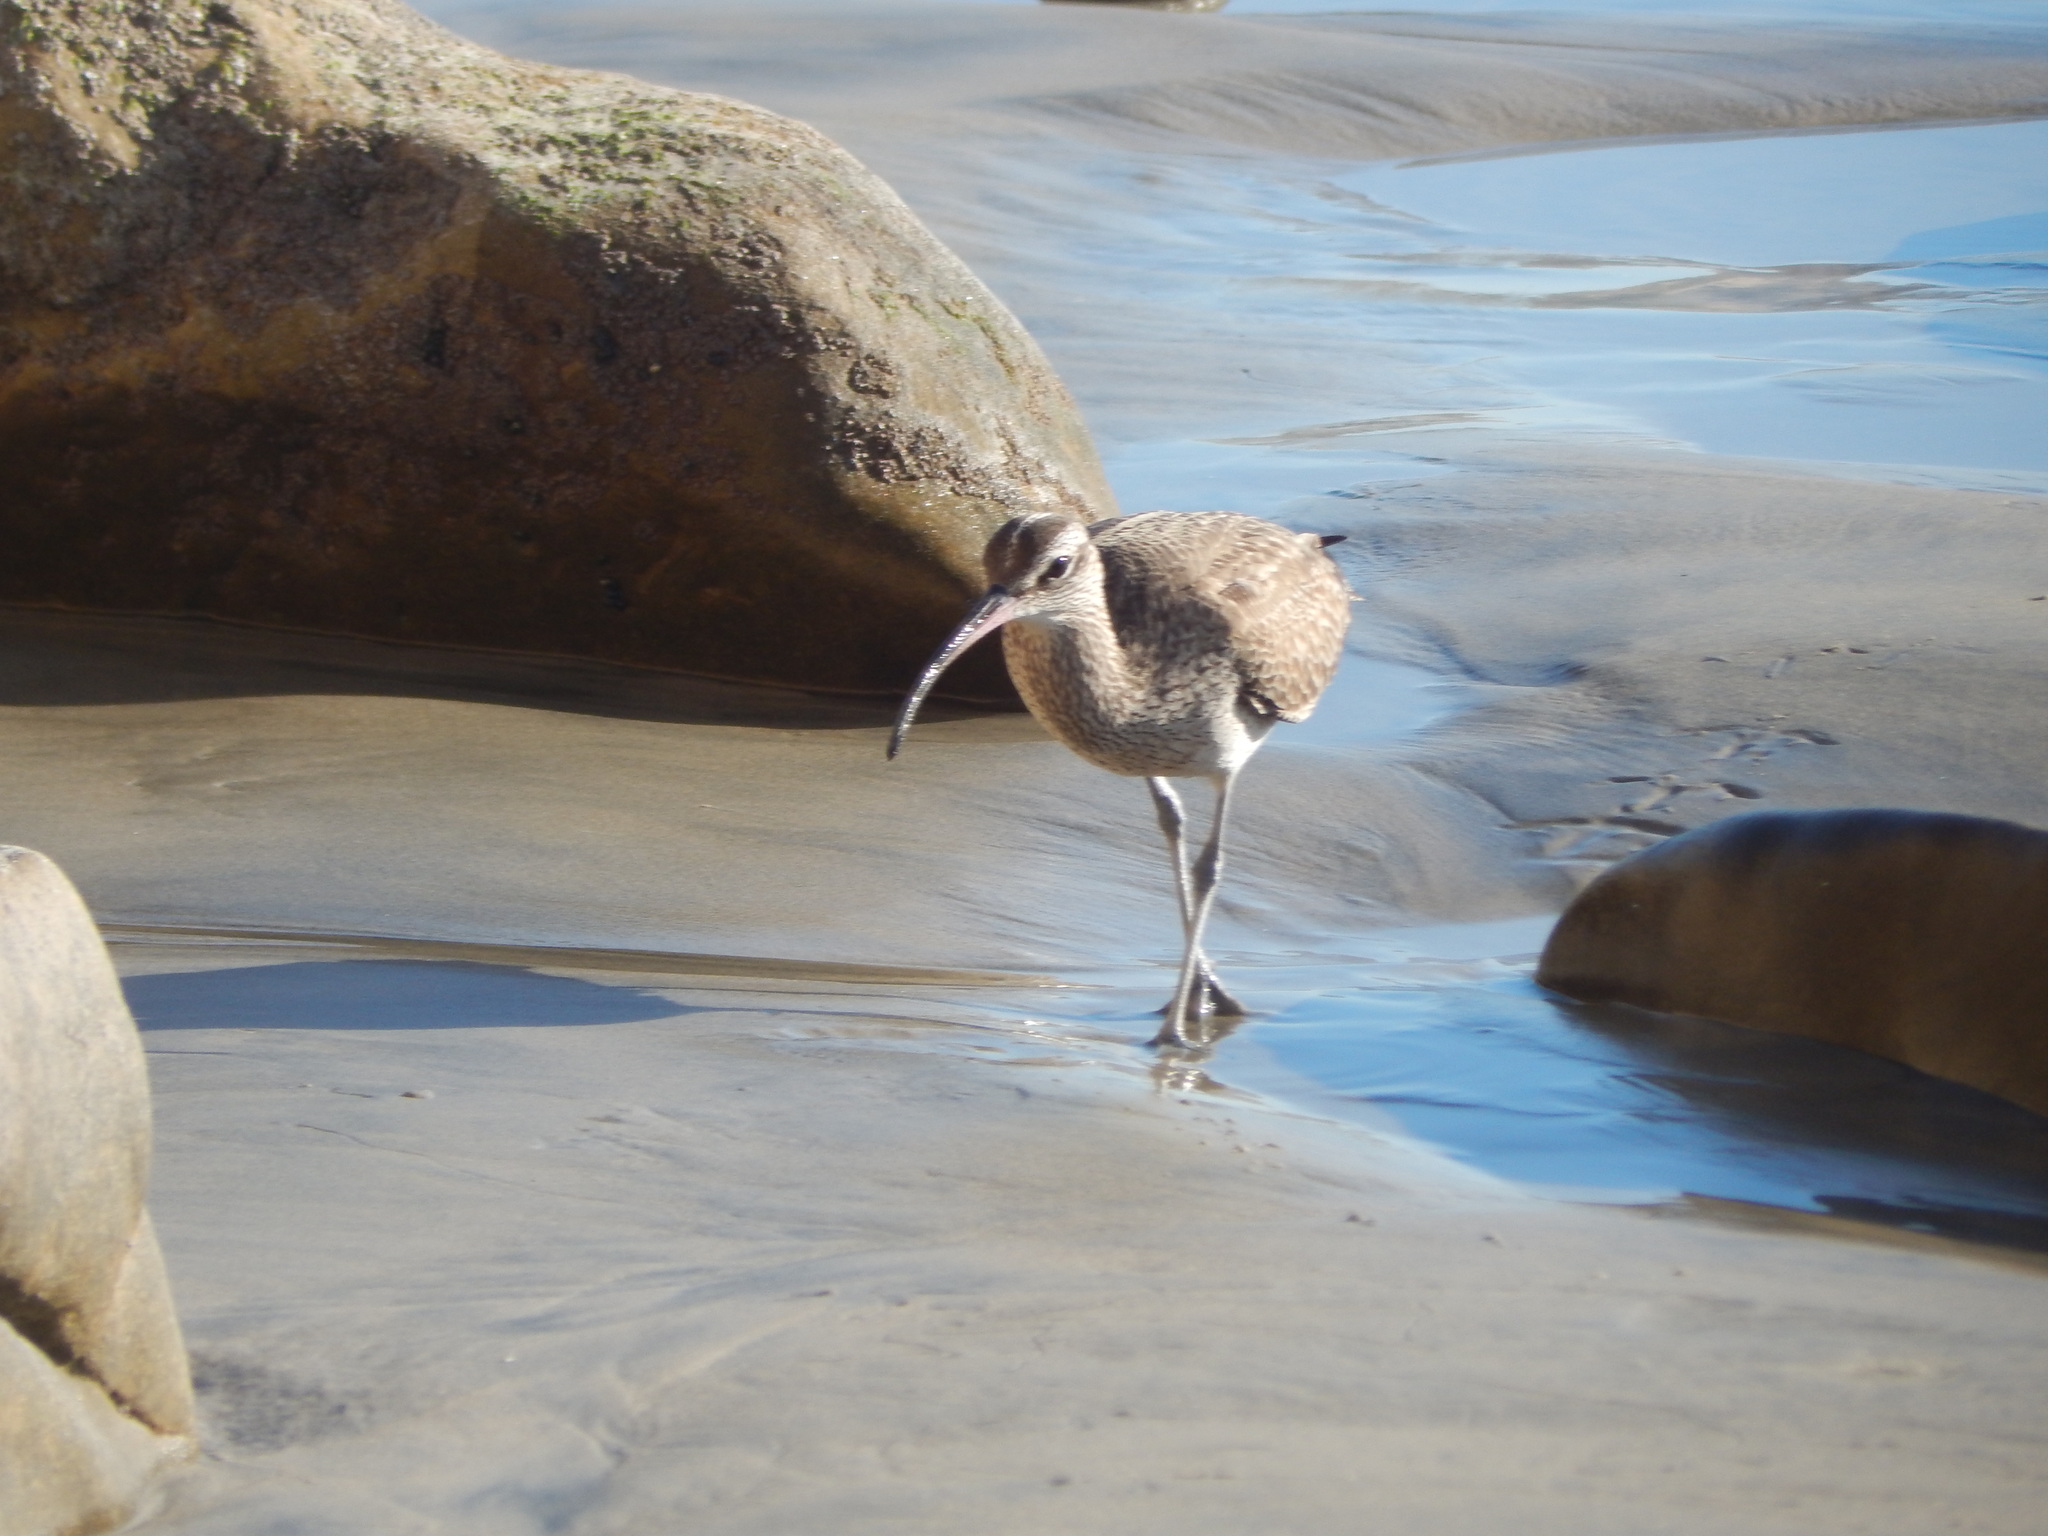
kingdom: Animalia
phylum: Chordata
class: Aves
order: Charadriiformes
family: Scolopacidae
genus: Numenius
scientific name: Numenius phaeopus
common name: Whimbrel
